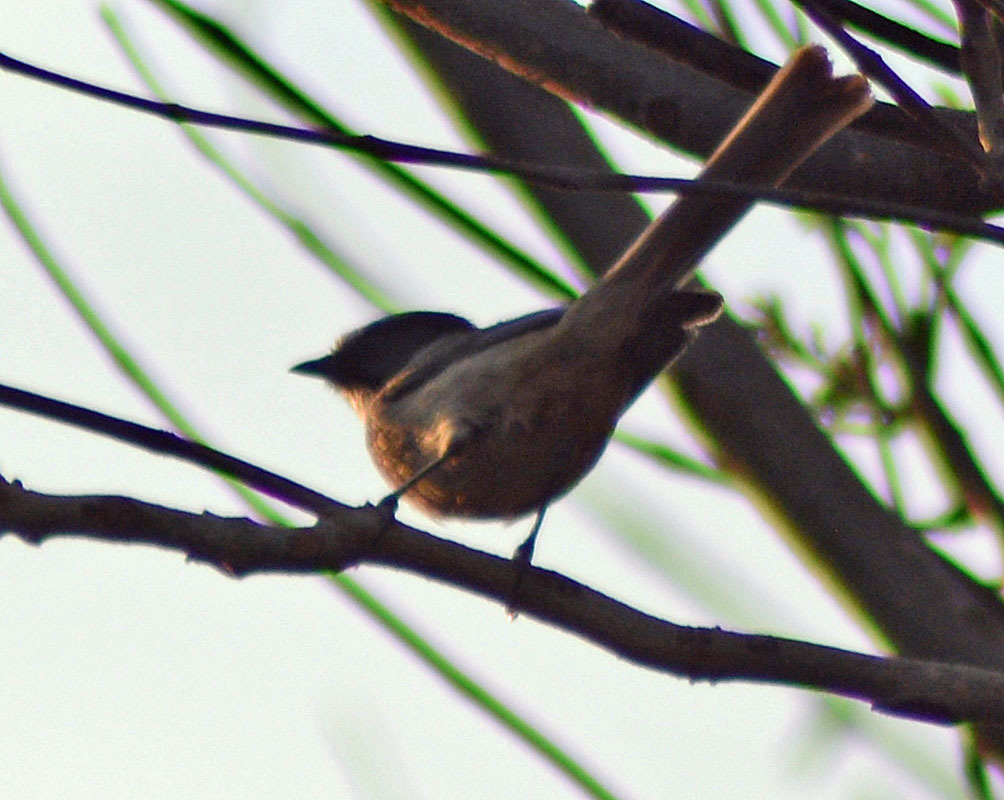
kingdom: Animalia
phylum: Chordata
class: Aves
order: Passeriformes
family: Aegithalidae
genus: Psaltriparus
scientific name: Psaltriparus minimus
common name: American bushtit
